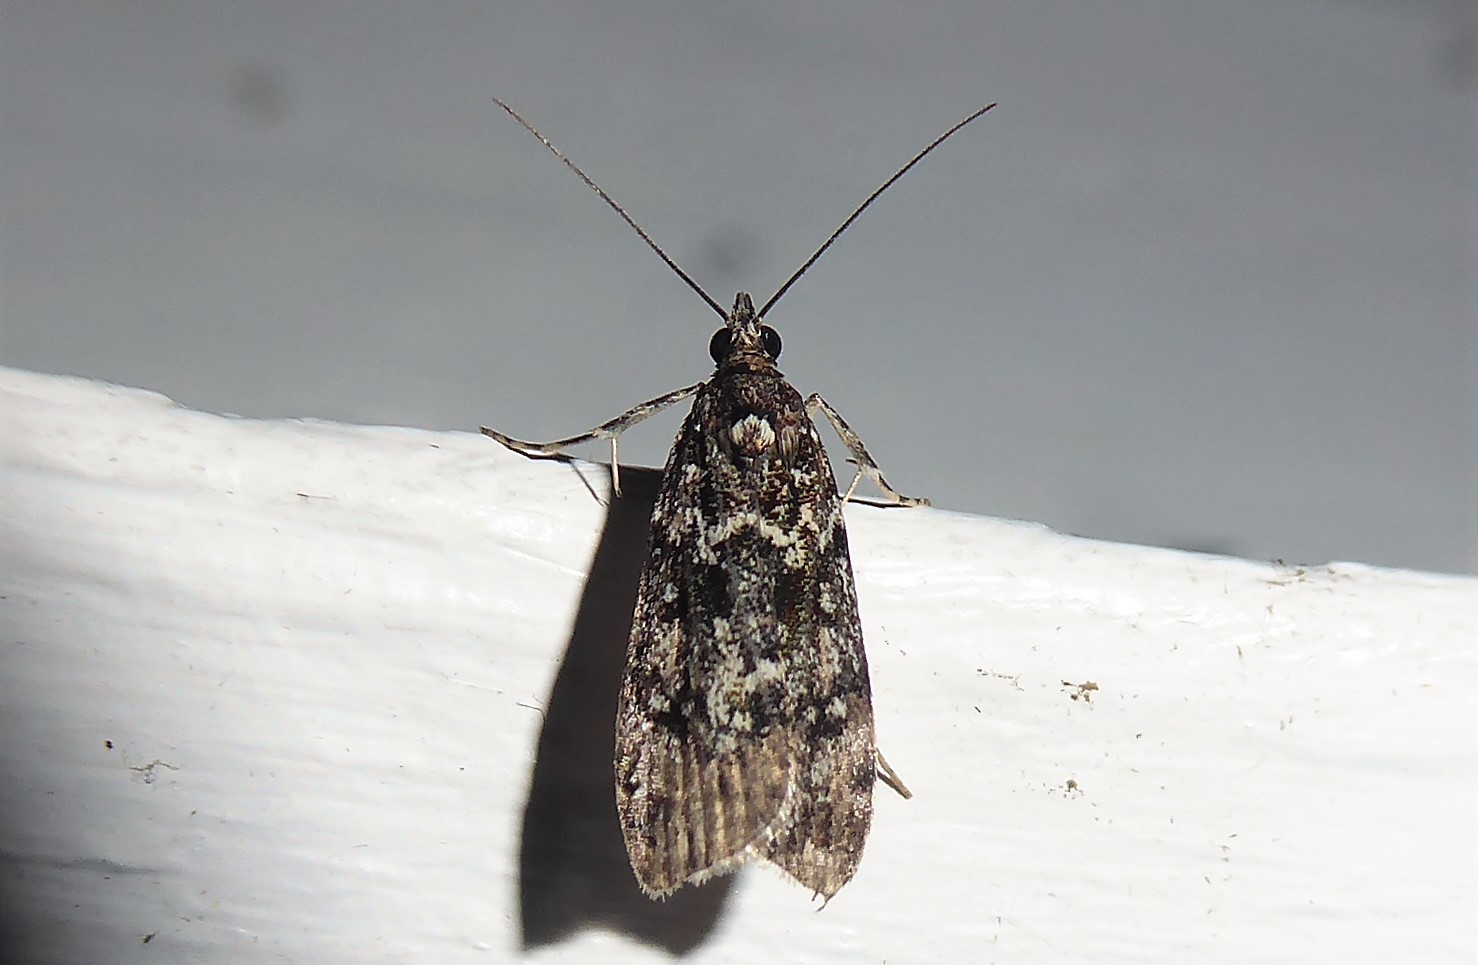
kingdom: Animalia
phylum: Arthropoda
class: Insecta
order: Lepidoptera
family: Crambidae
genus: Eudonia
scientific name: Eudonia philerga
